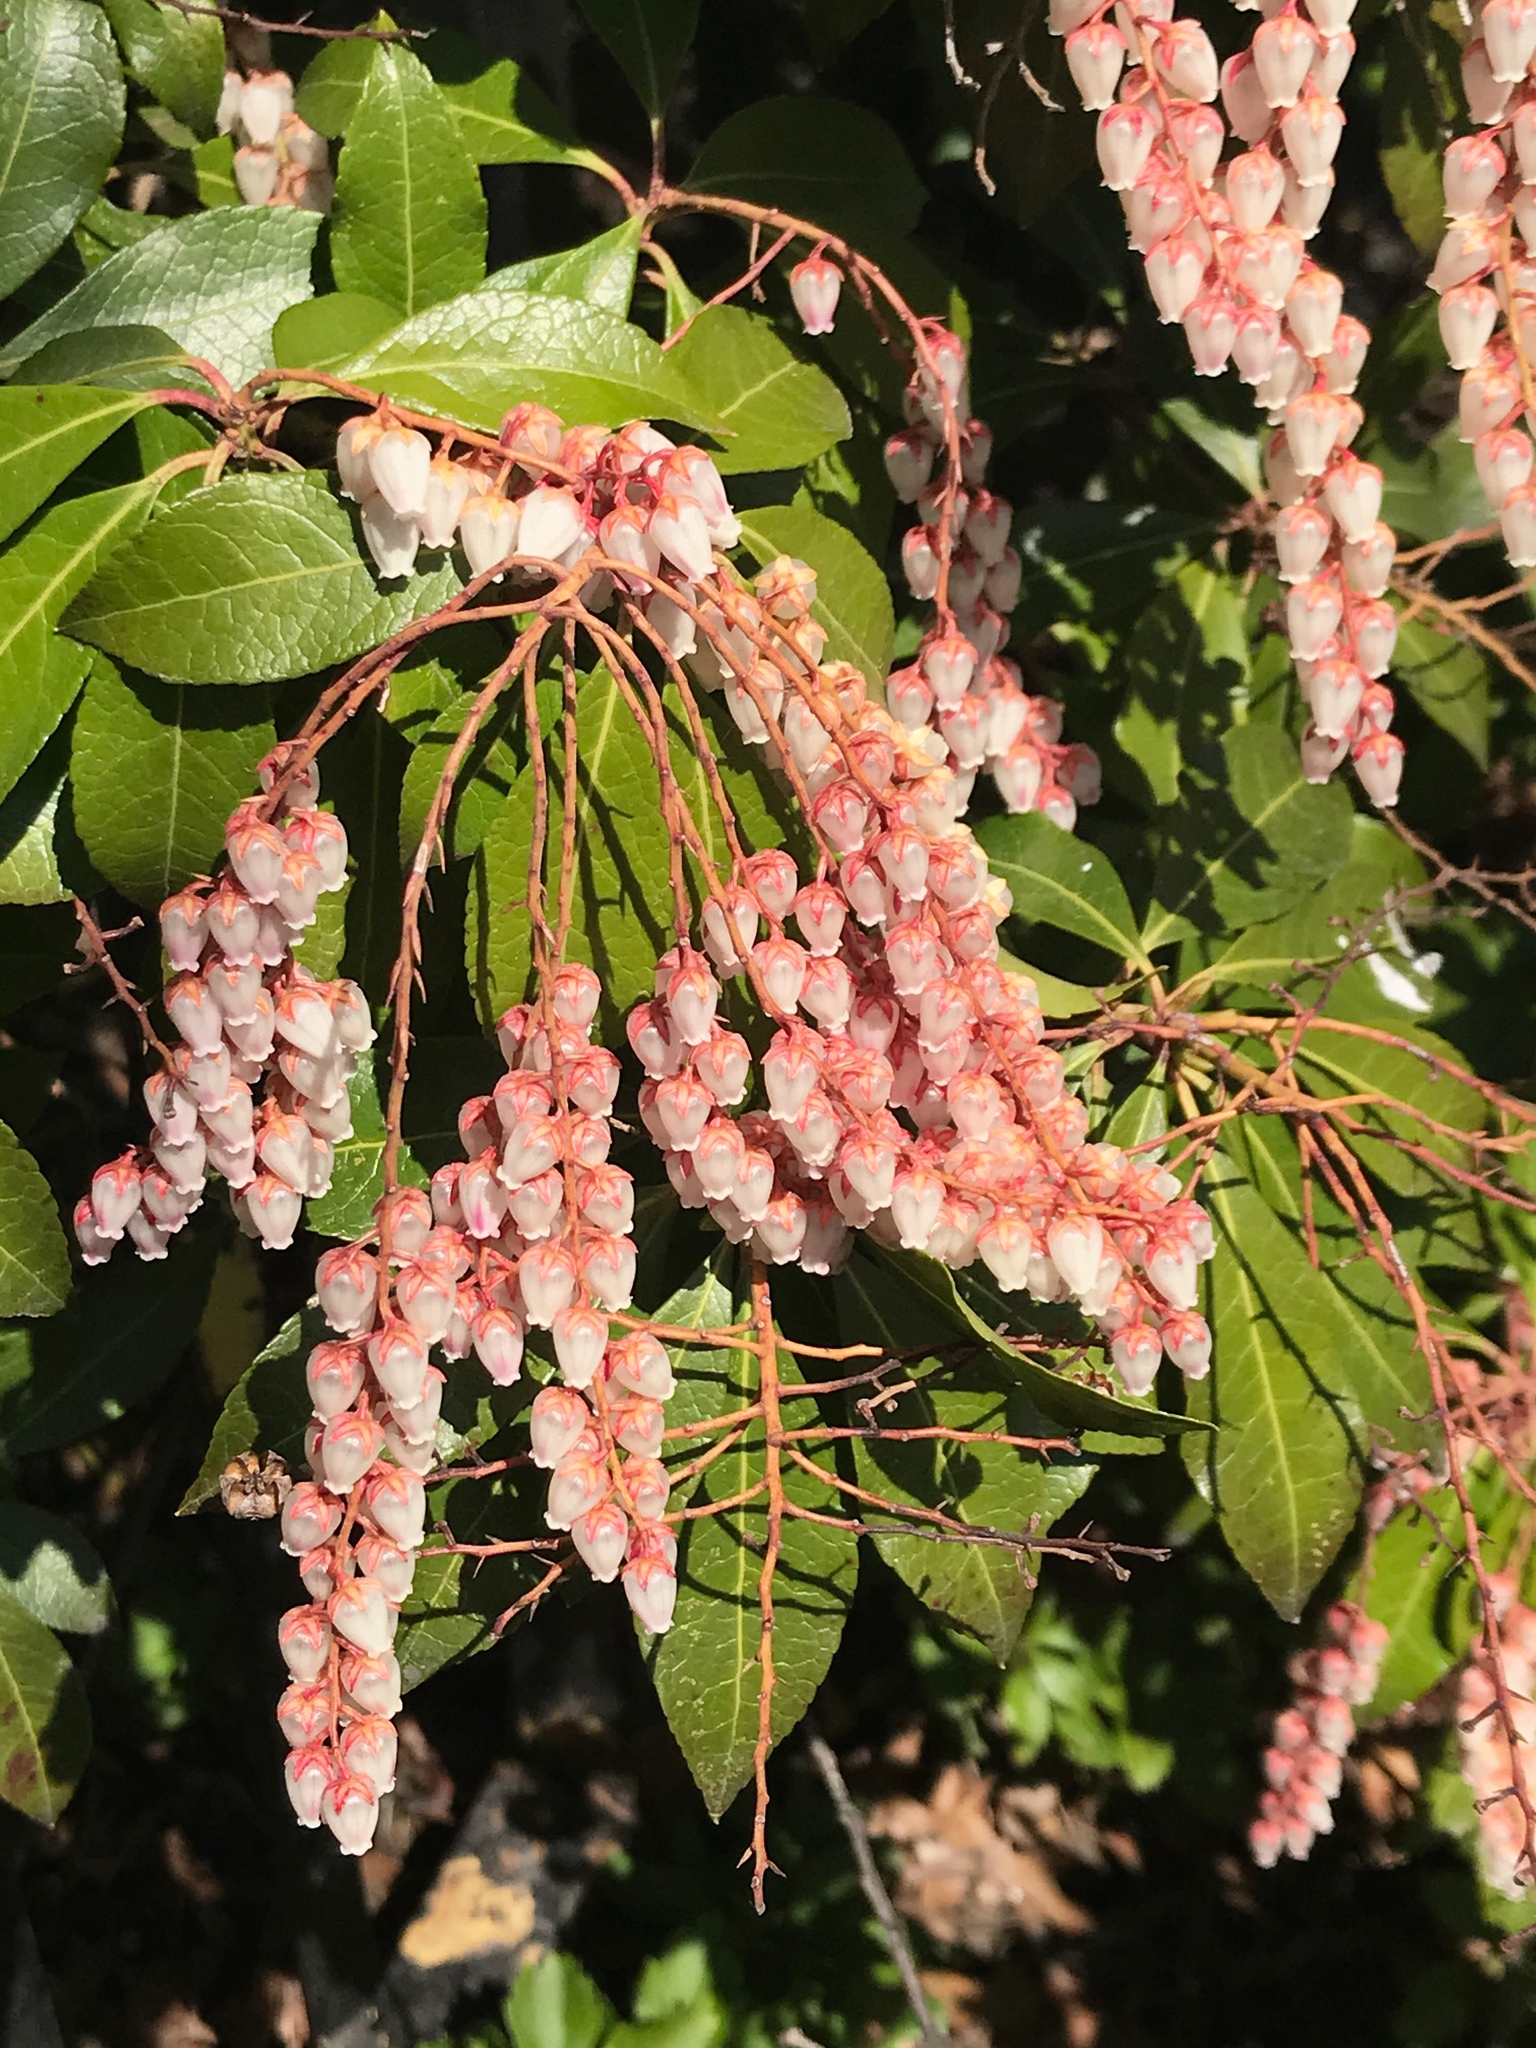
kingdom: Plantae
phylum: Tracheophyta
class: Magnoliopsida
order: Ericales
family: Ericaceae
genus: Pieris
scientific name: Pieris japonica
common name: Japanese pieris
